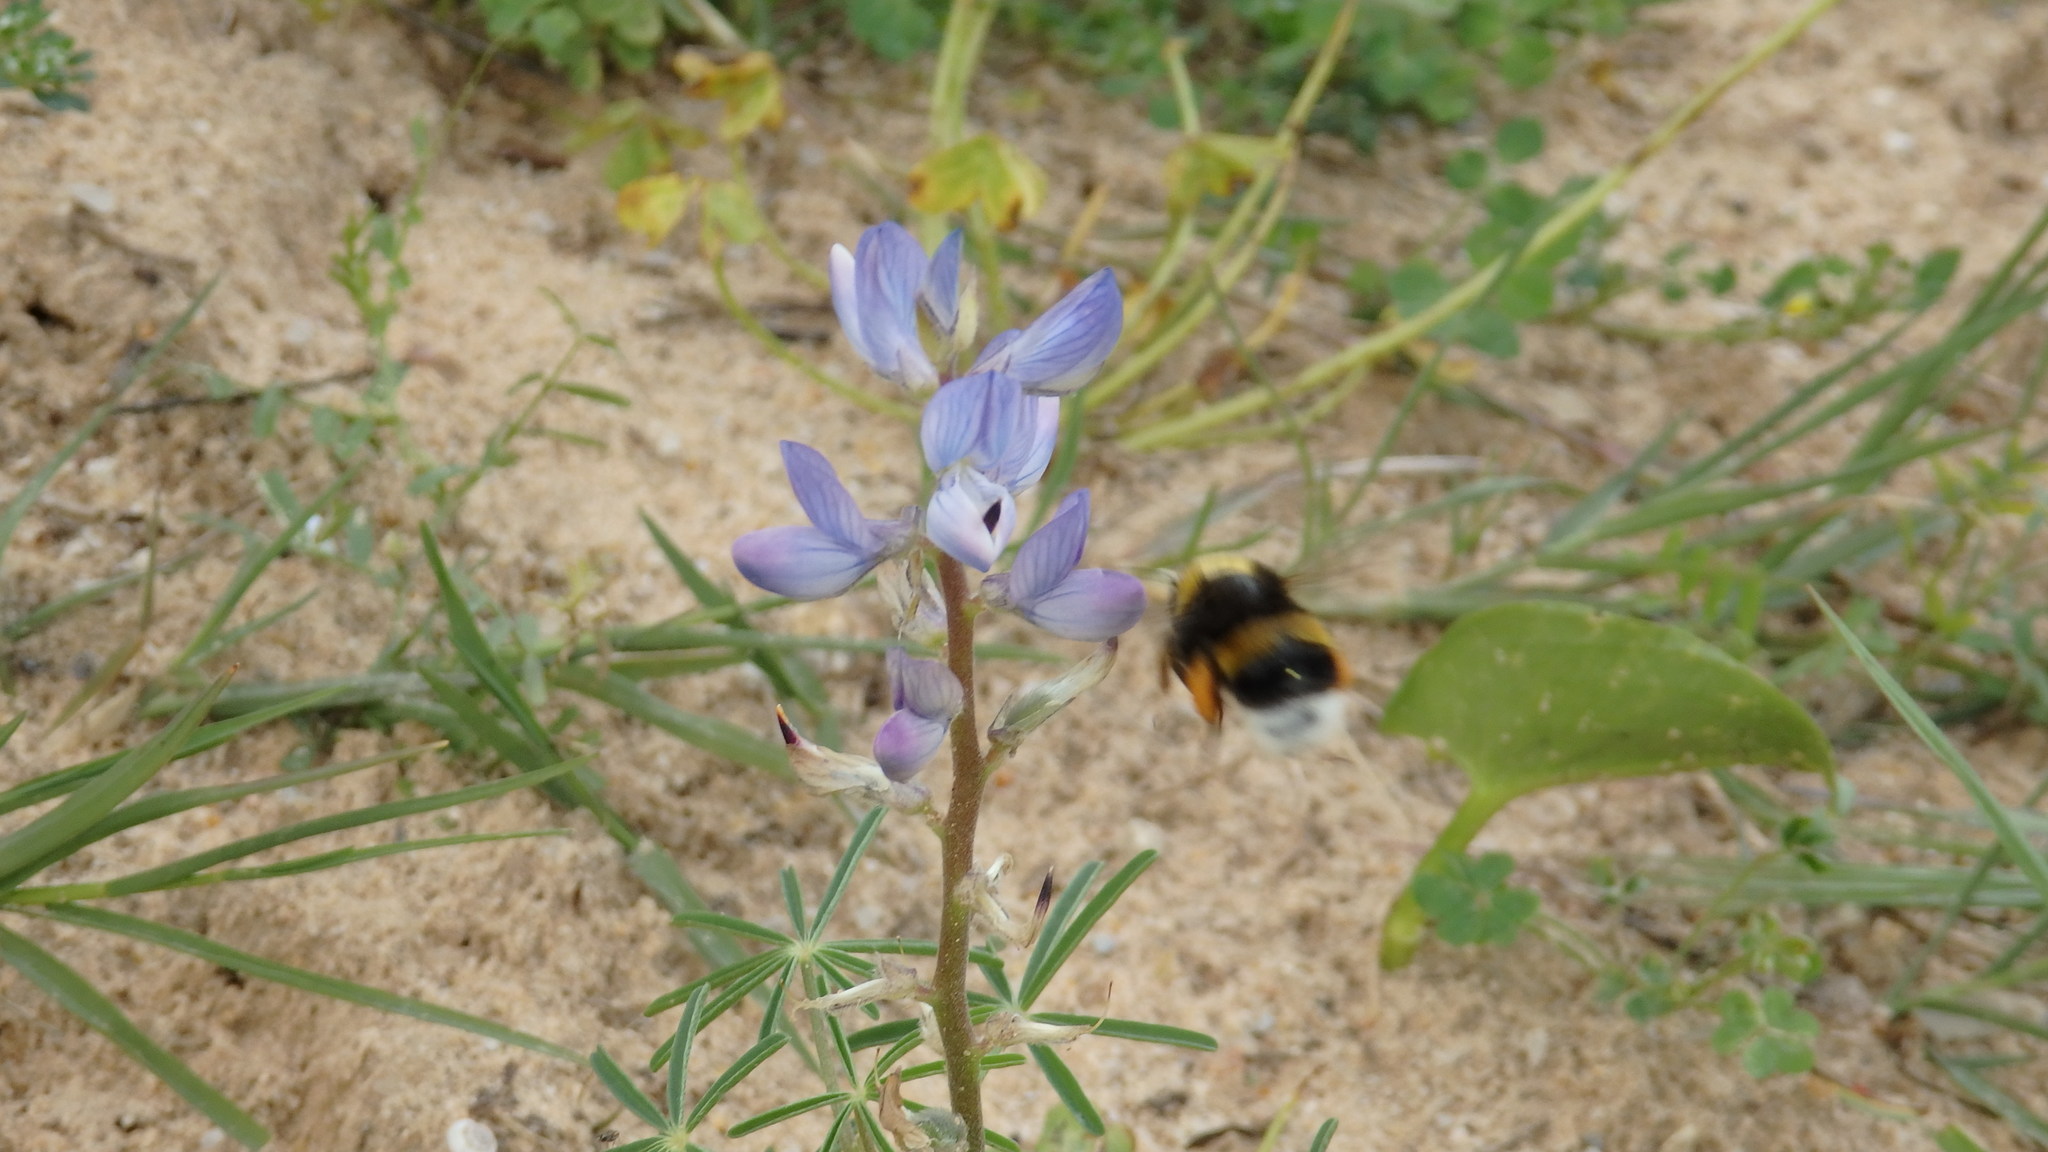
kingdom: Plantae
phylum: Tracheophyta
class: Magnoliopsida
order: Fabales
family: Fabaceae
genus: Lupinus
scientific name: Lupinus angustifolius
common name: Narrow-leaved lupin
